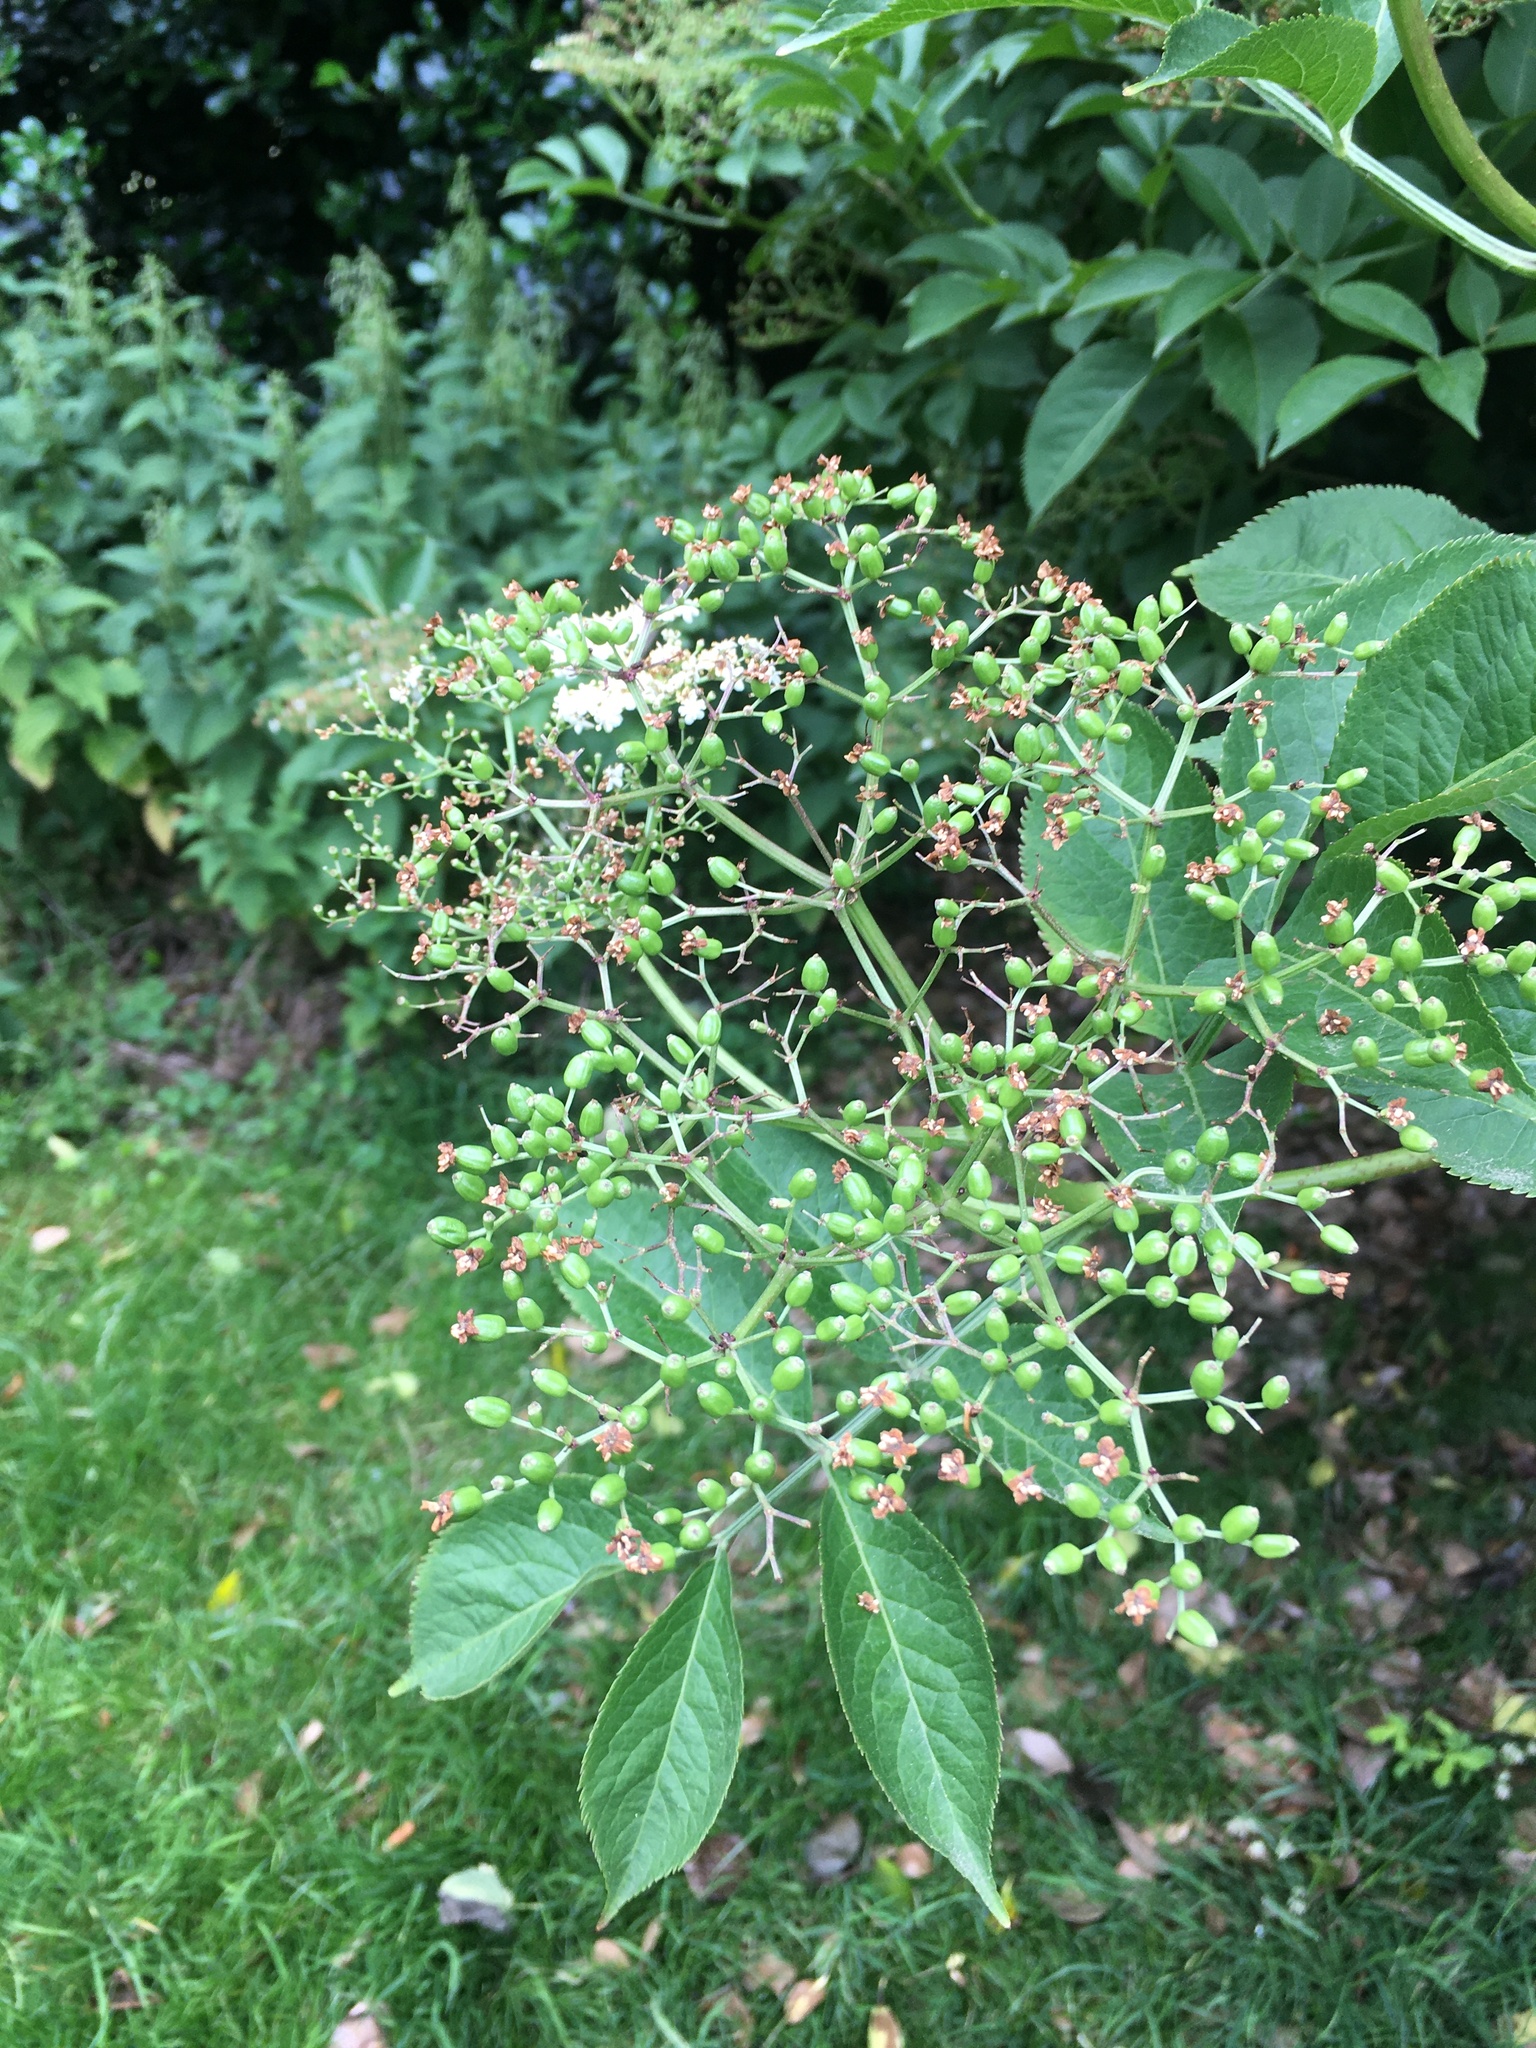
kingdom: Plantae
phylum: Tracheophyta
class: Magnoliopsida
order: Dipsacales
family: Viburnaceae
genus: Sambucus
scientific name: Sambucus nigra
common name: Elder
